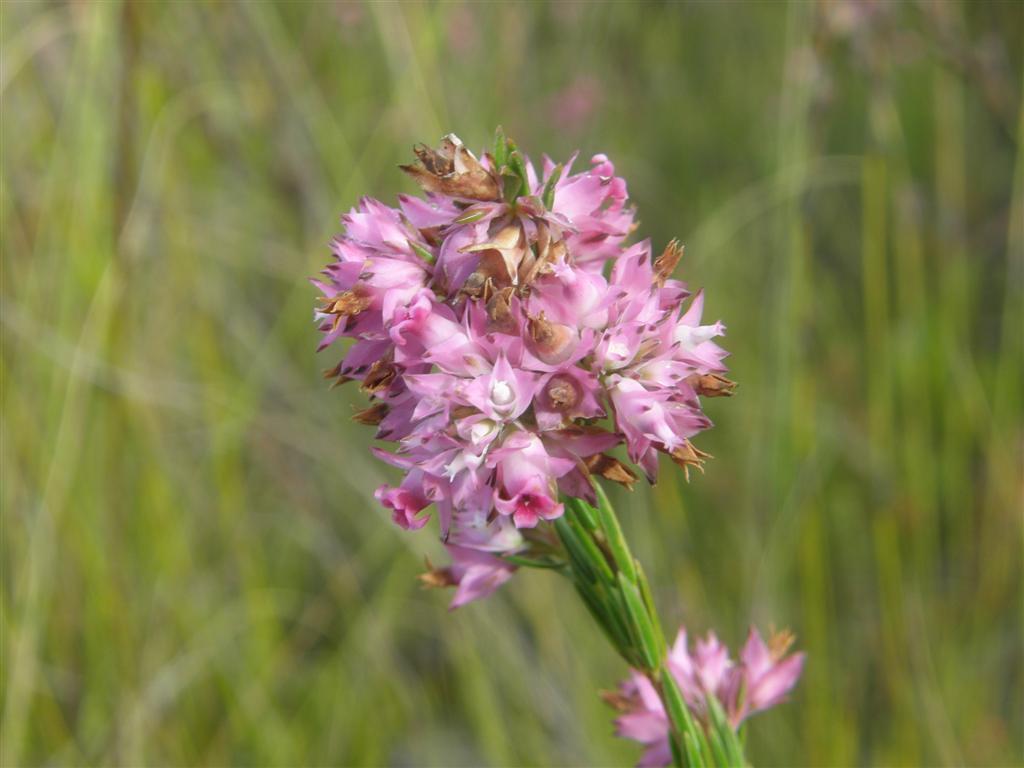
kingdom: Plantae
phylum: Tracheophyta
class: Magnoliopsida
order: Ericales
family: Ericaceae
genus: Erica
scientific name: Erica corifolia
